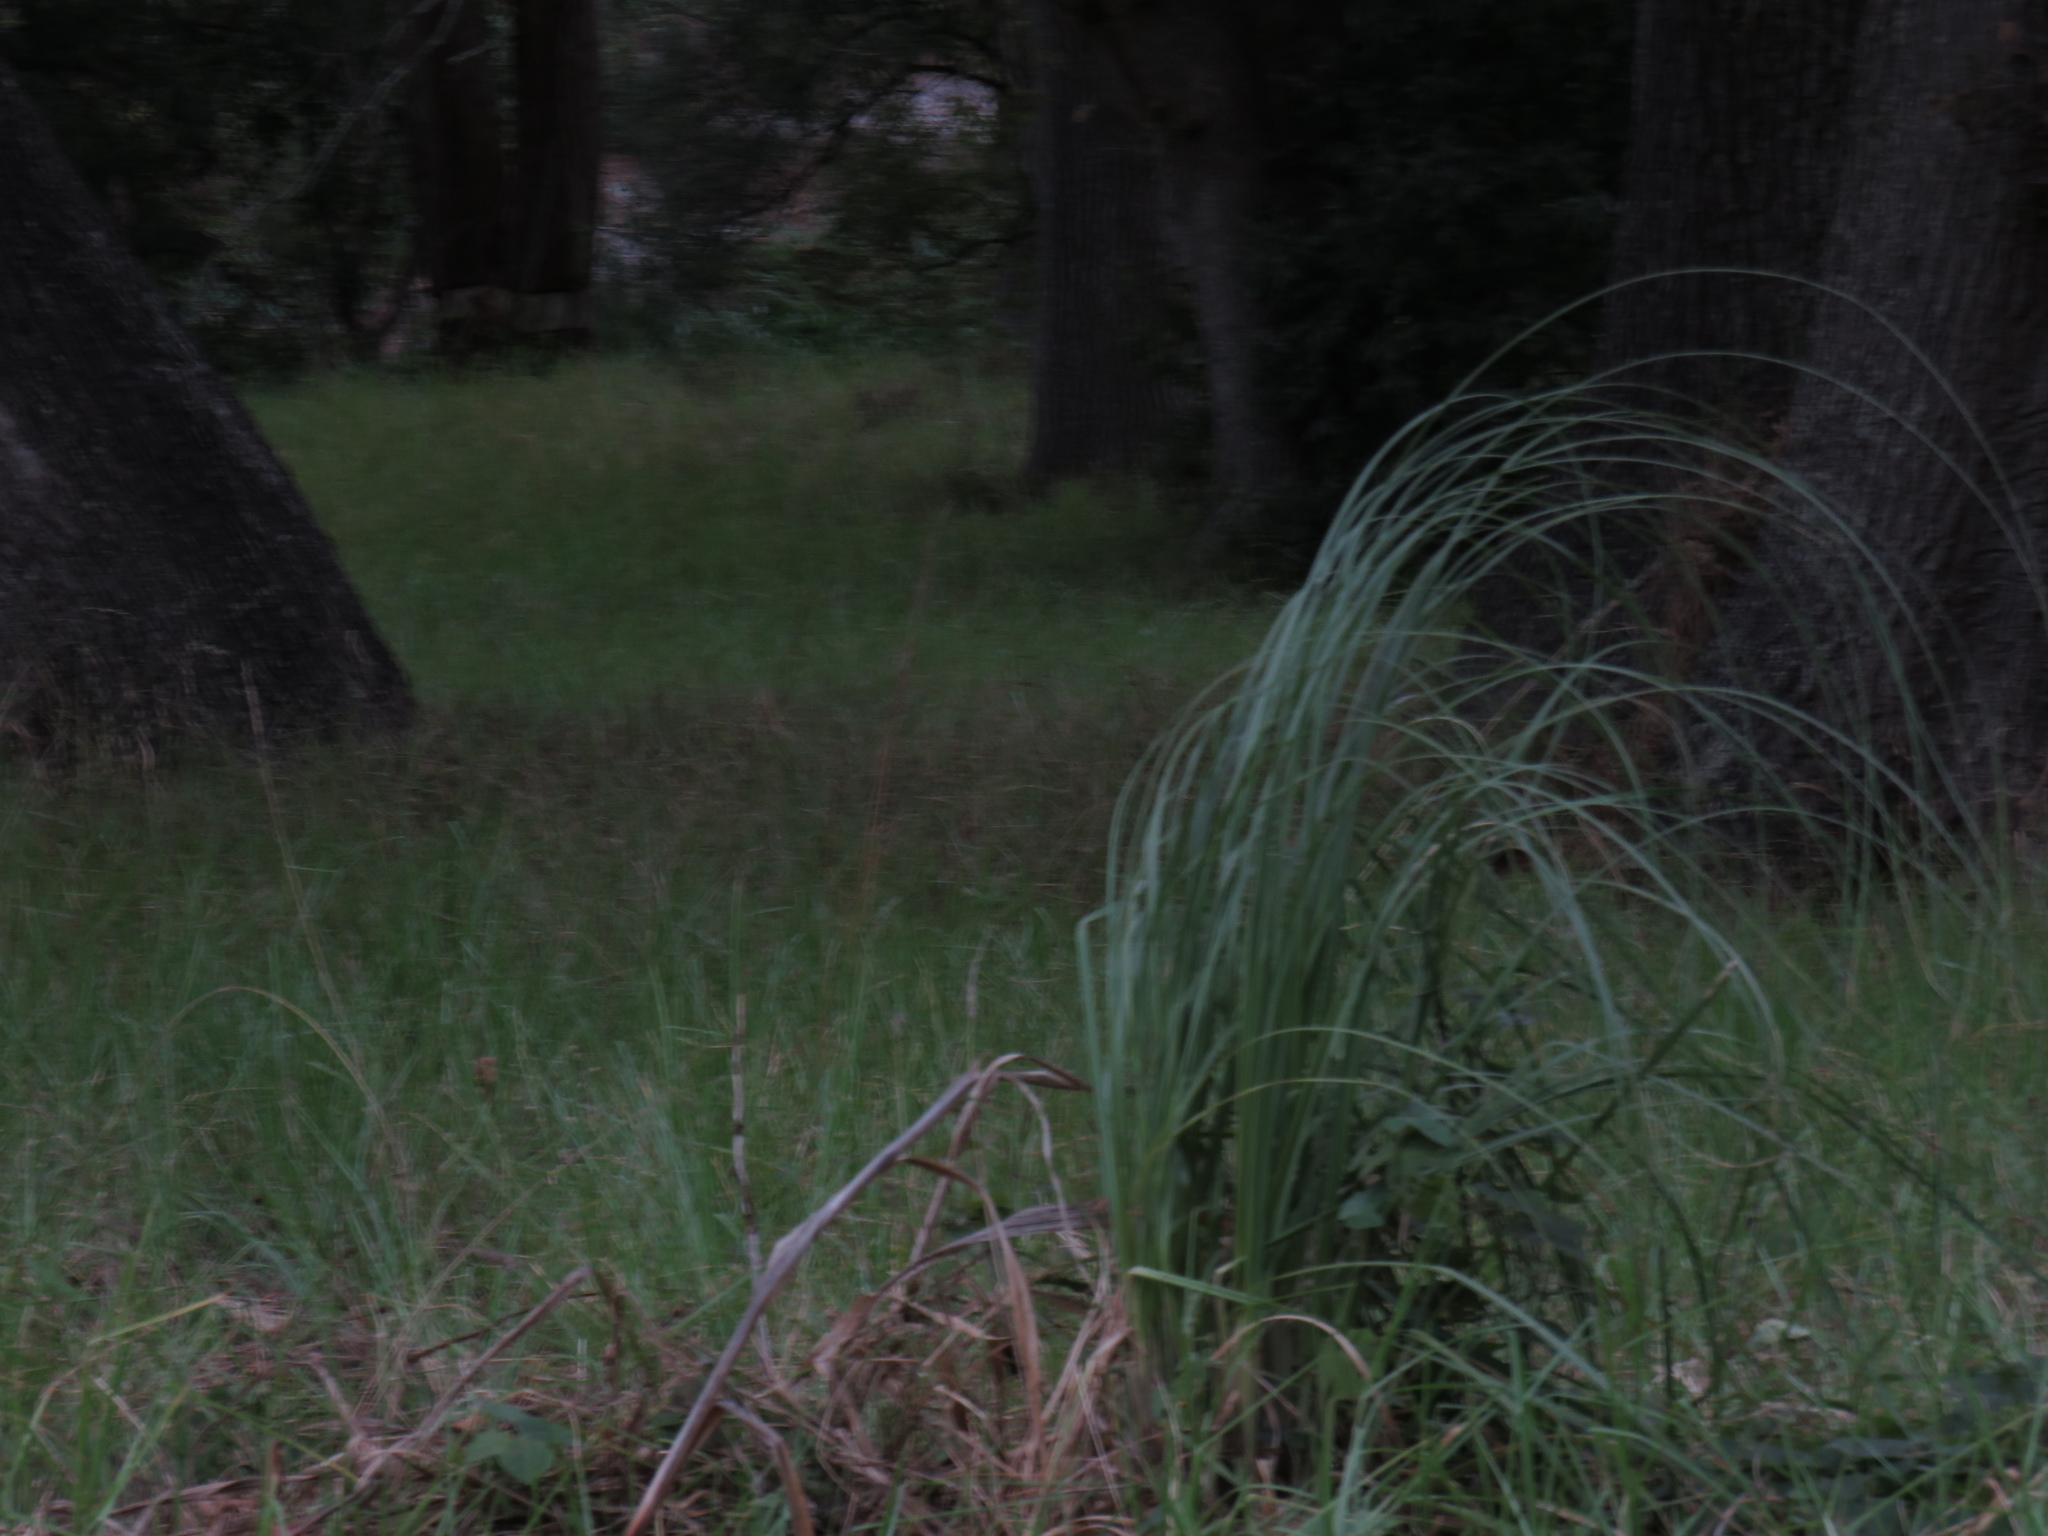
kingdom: Plantae
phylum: Tracheophyta
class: Liliopsida
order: Poales
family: Poaceae
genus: Cortaderia
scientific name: Cortaderia selloana
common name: Uruguayan pampas grass
